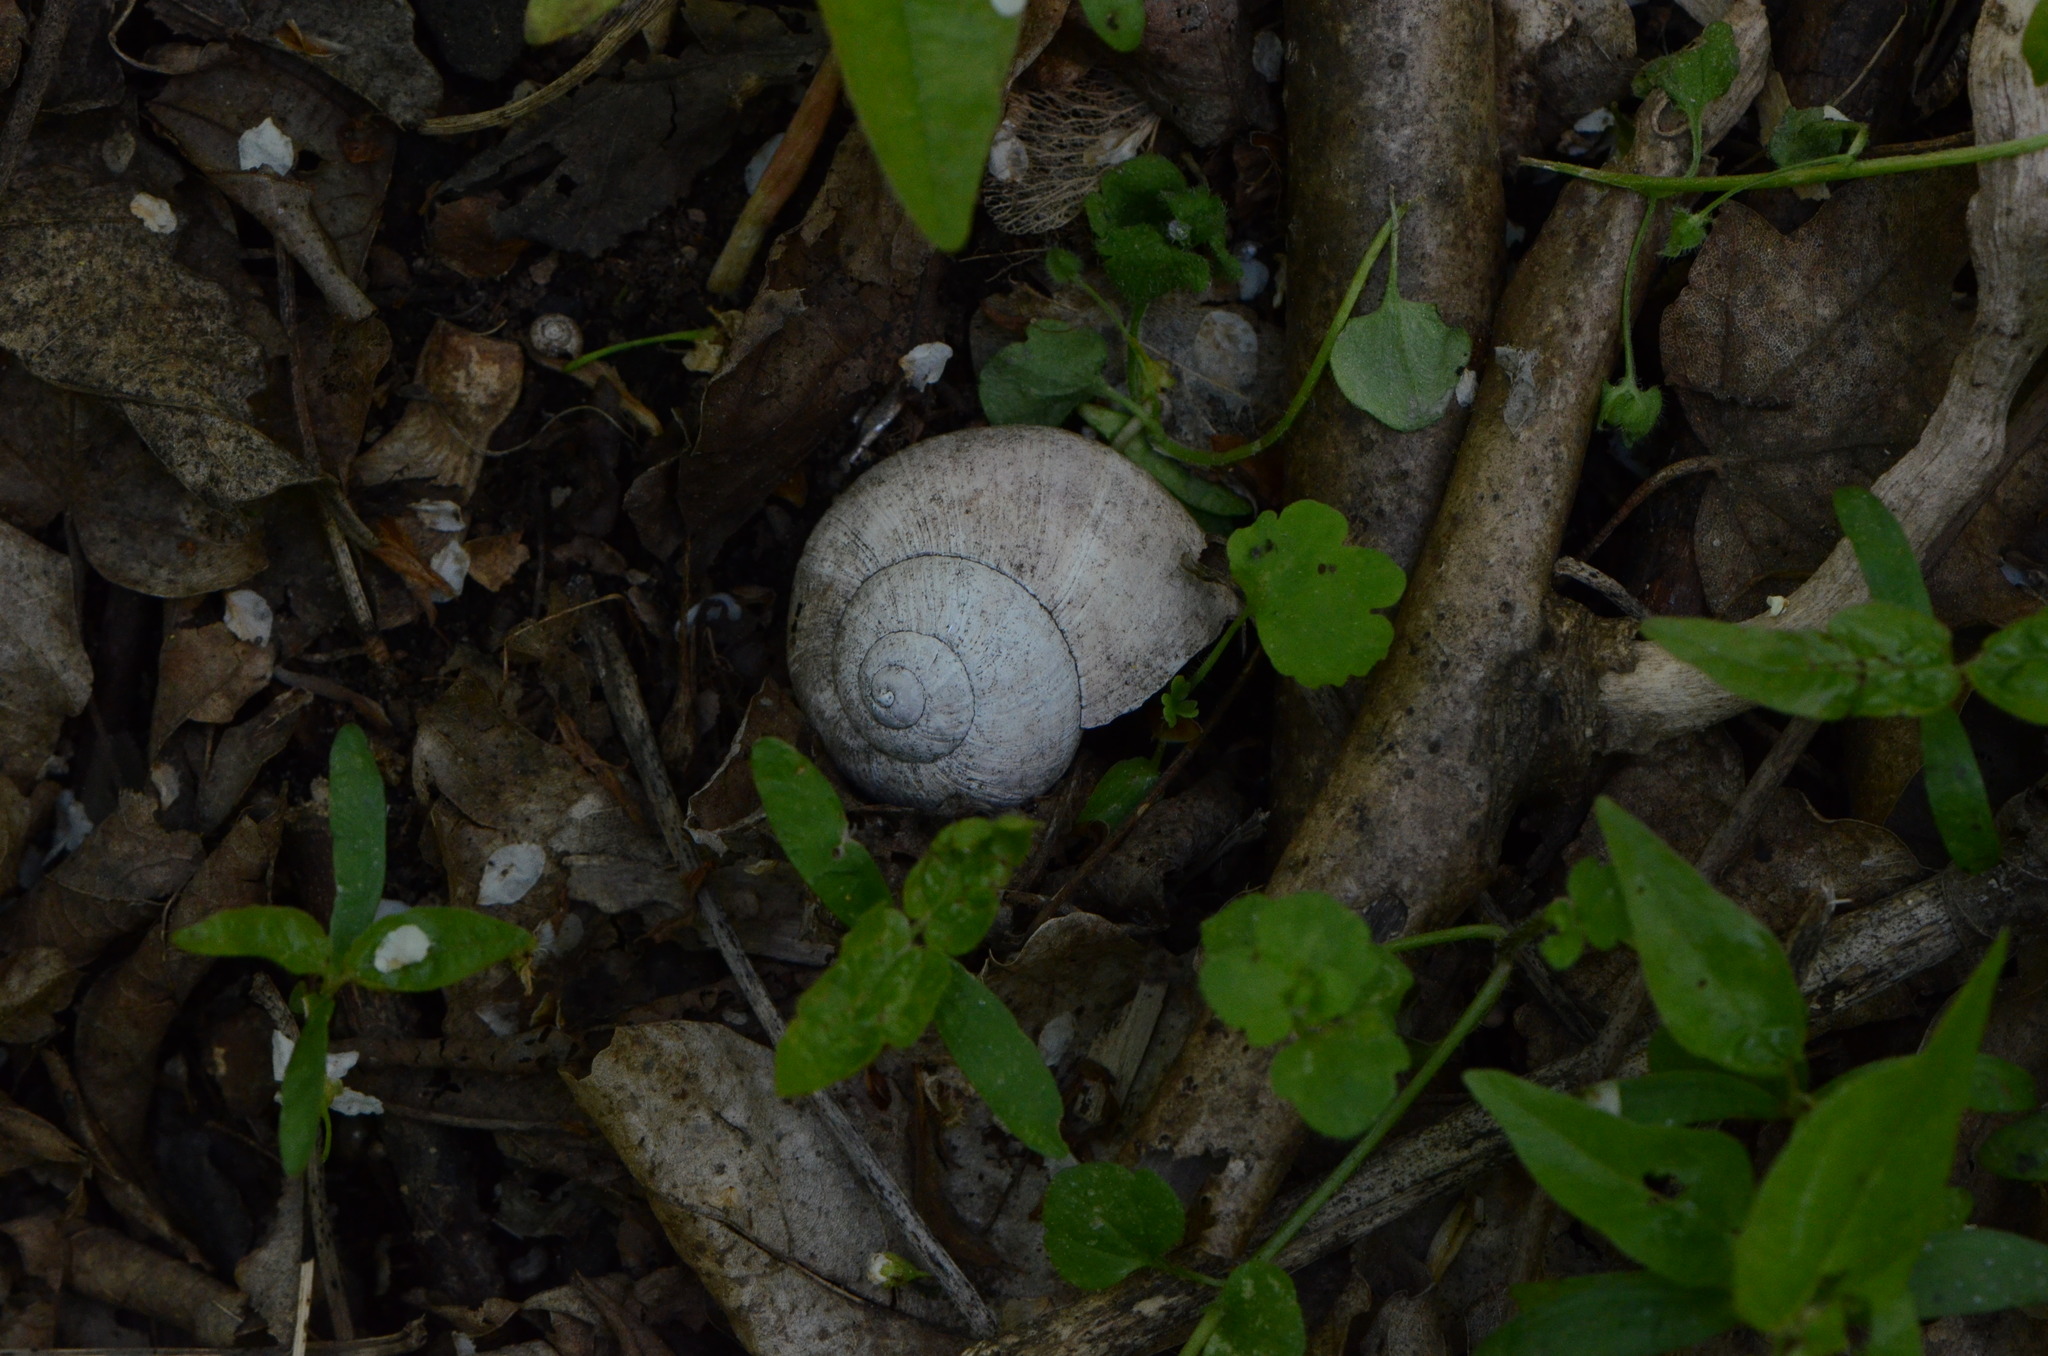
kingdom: Animalia
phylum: Mollusca
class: Gastropoda
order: Stylommatophora
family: Helicidae
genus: Helix
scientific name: Helix pomatia
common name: Roman snail
